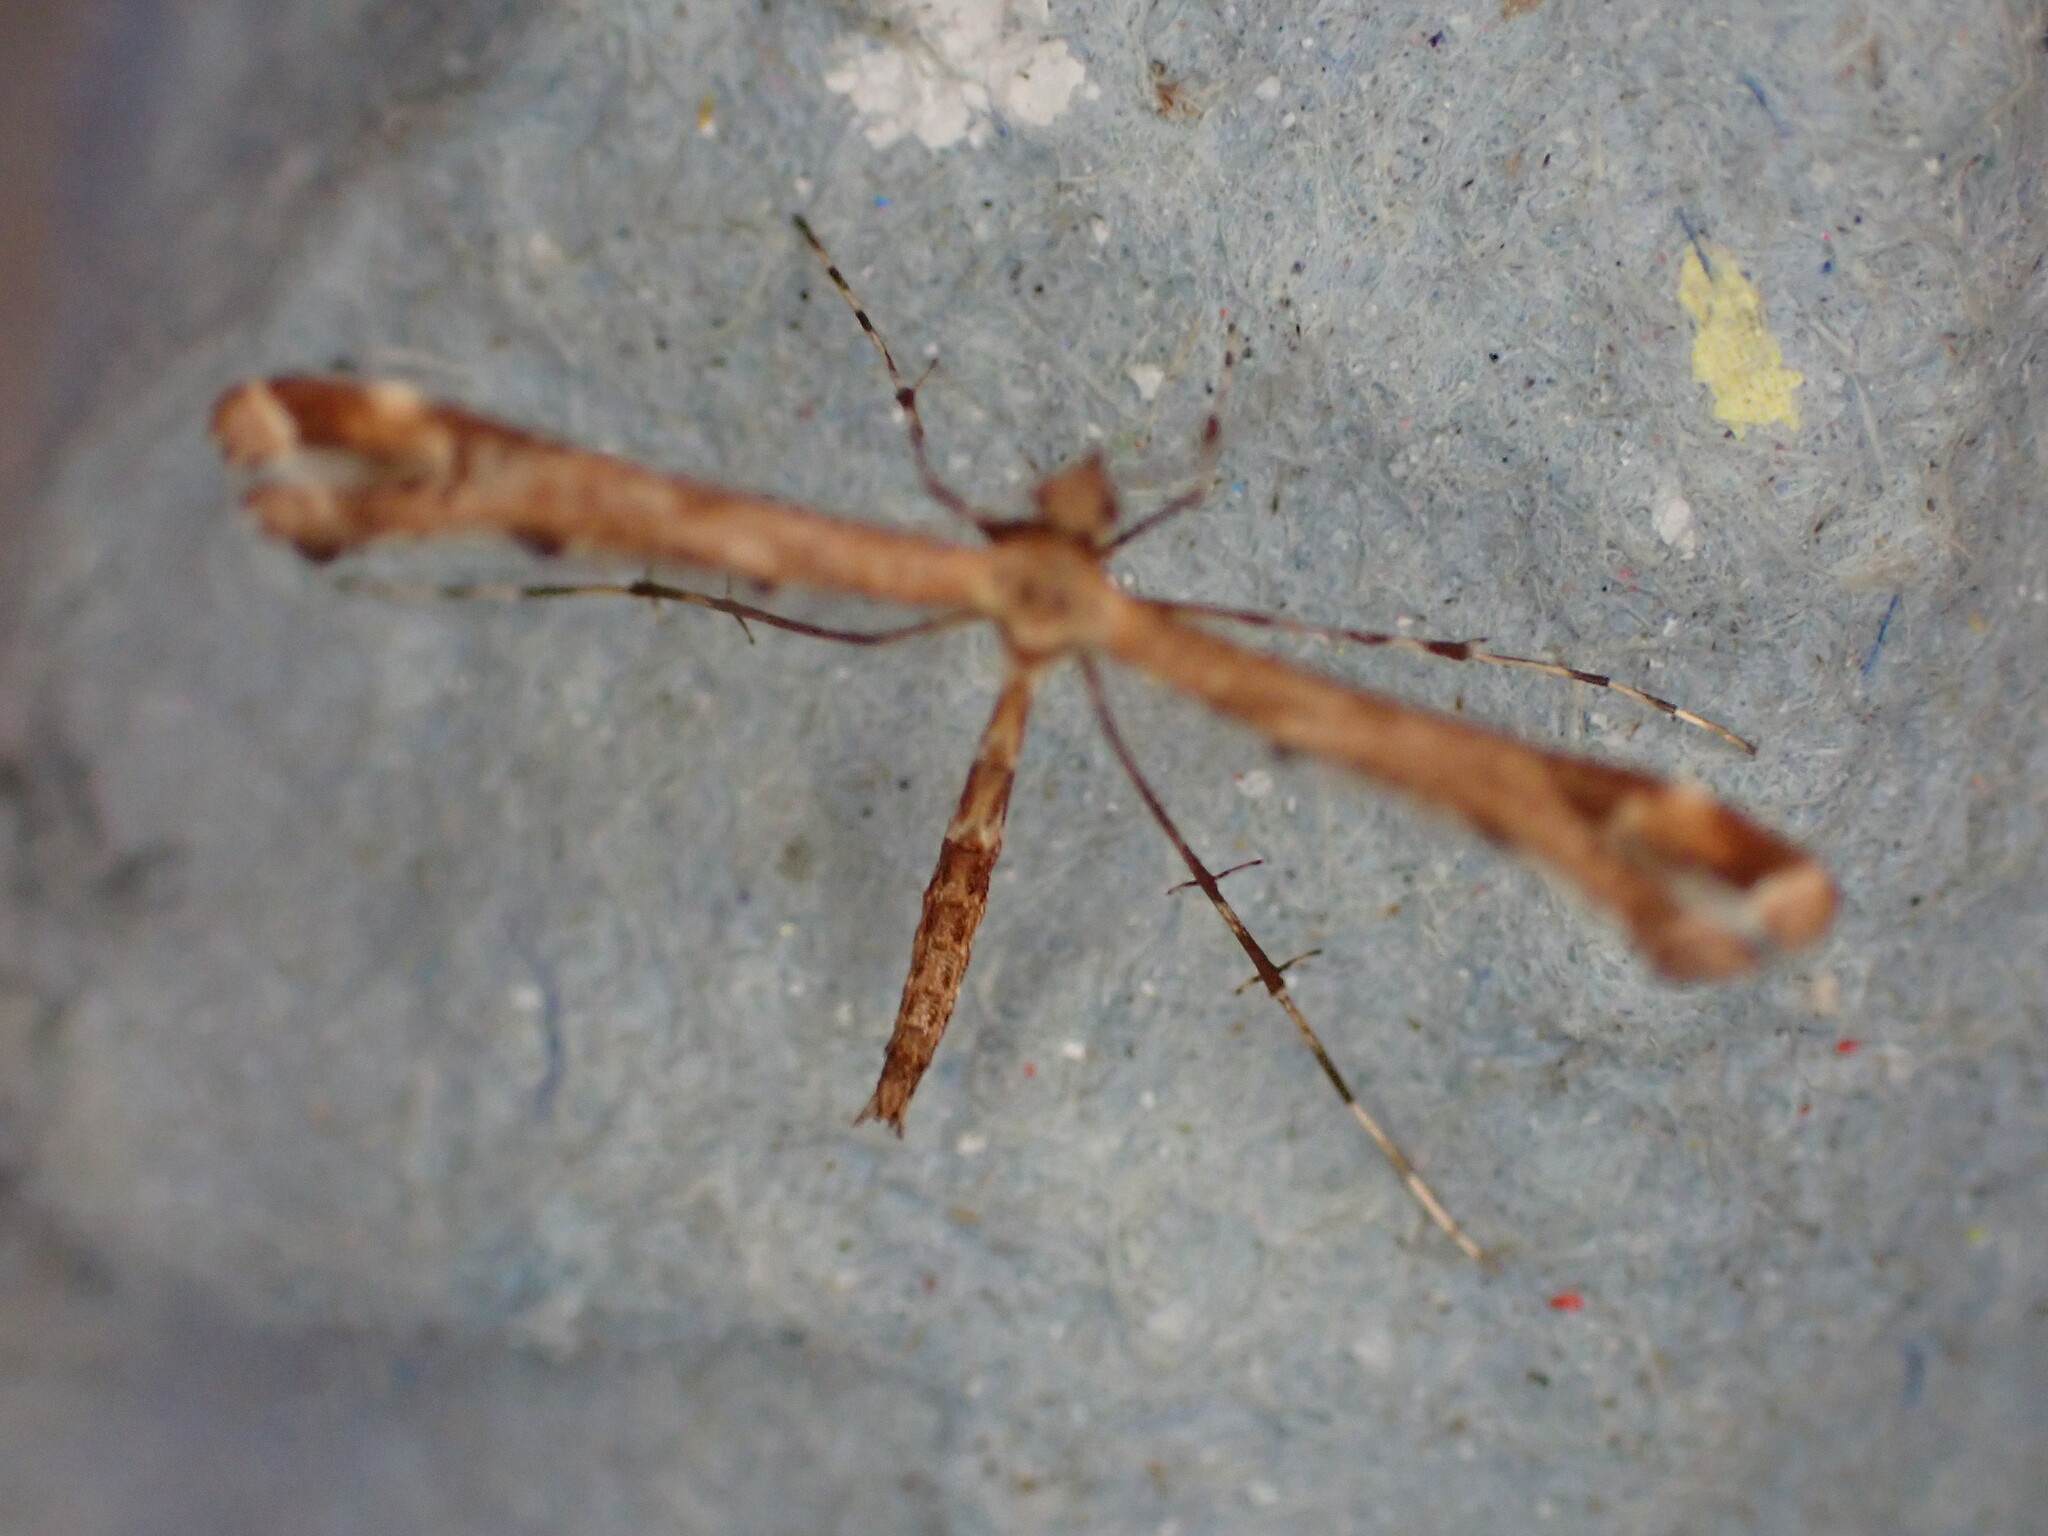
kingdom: Animalia
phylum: Arthropoda
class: Insecta
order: Lepidoptera
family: Pterophoridae
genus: Amblyptilia
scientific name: Amblyptilia acanthadactyla
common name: Beautiful plume
